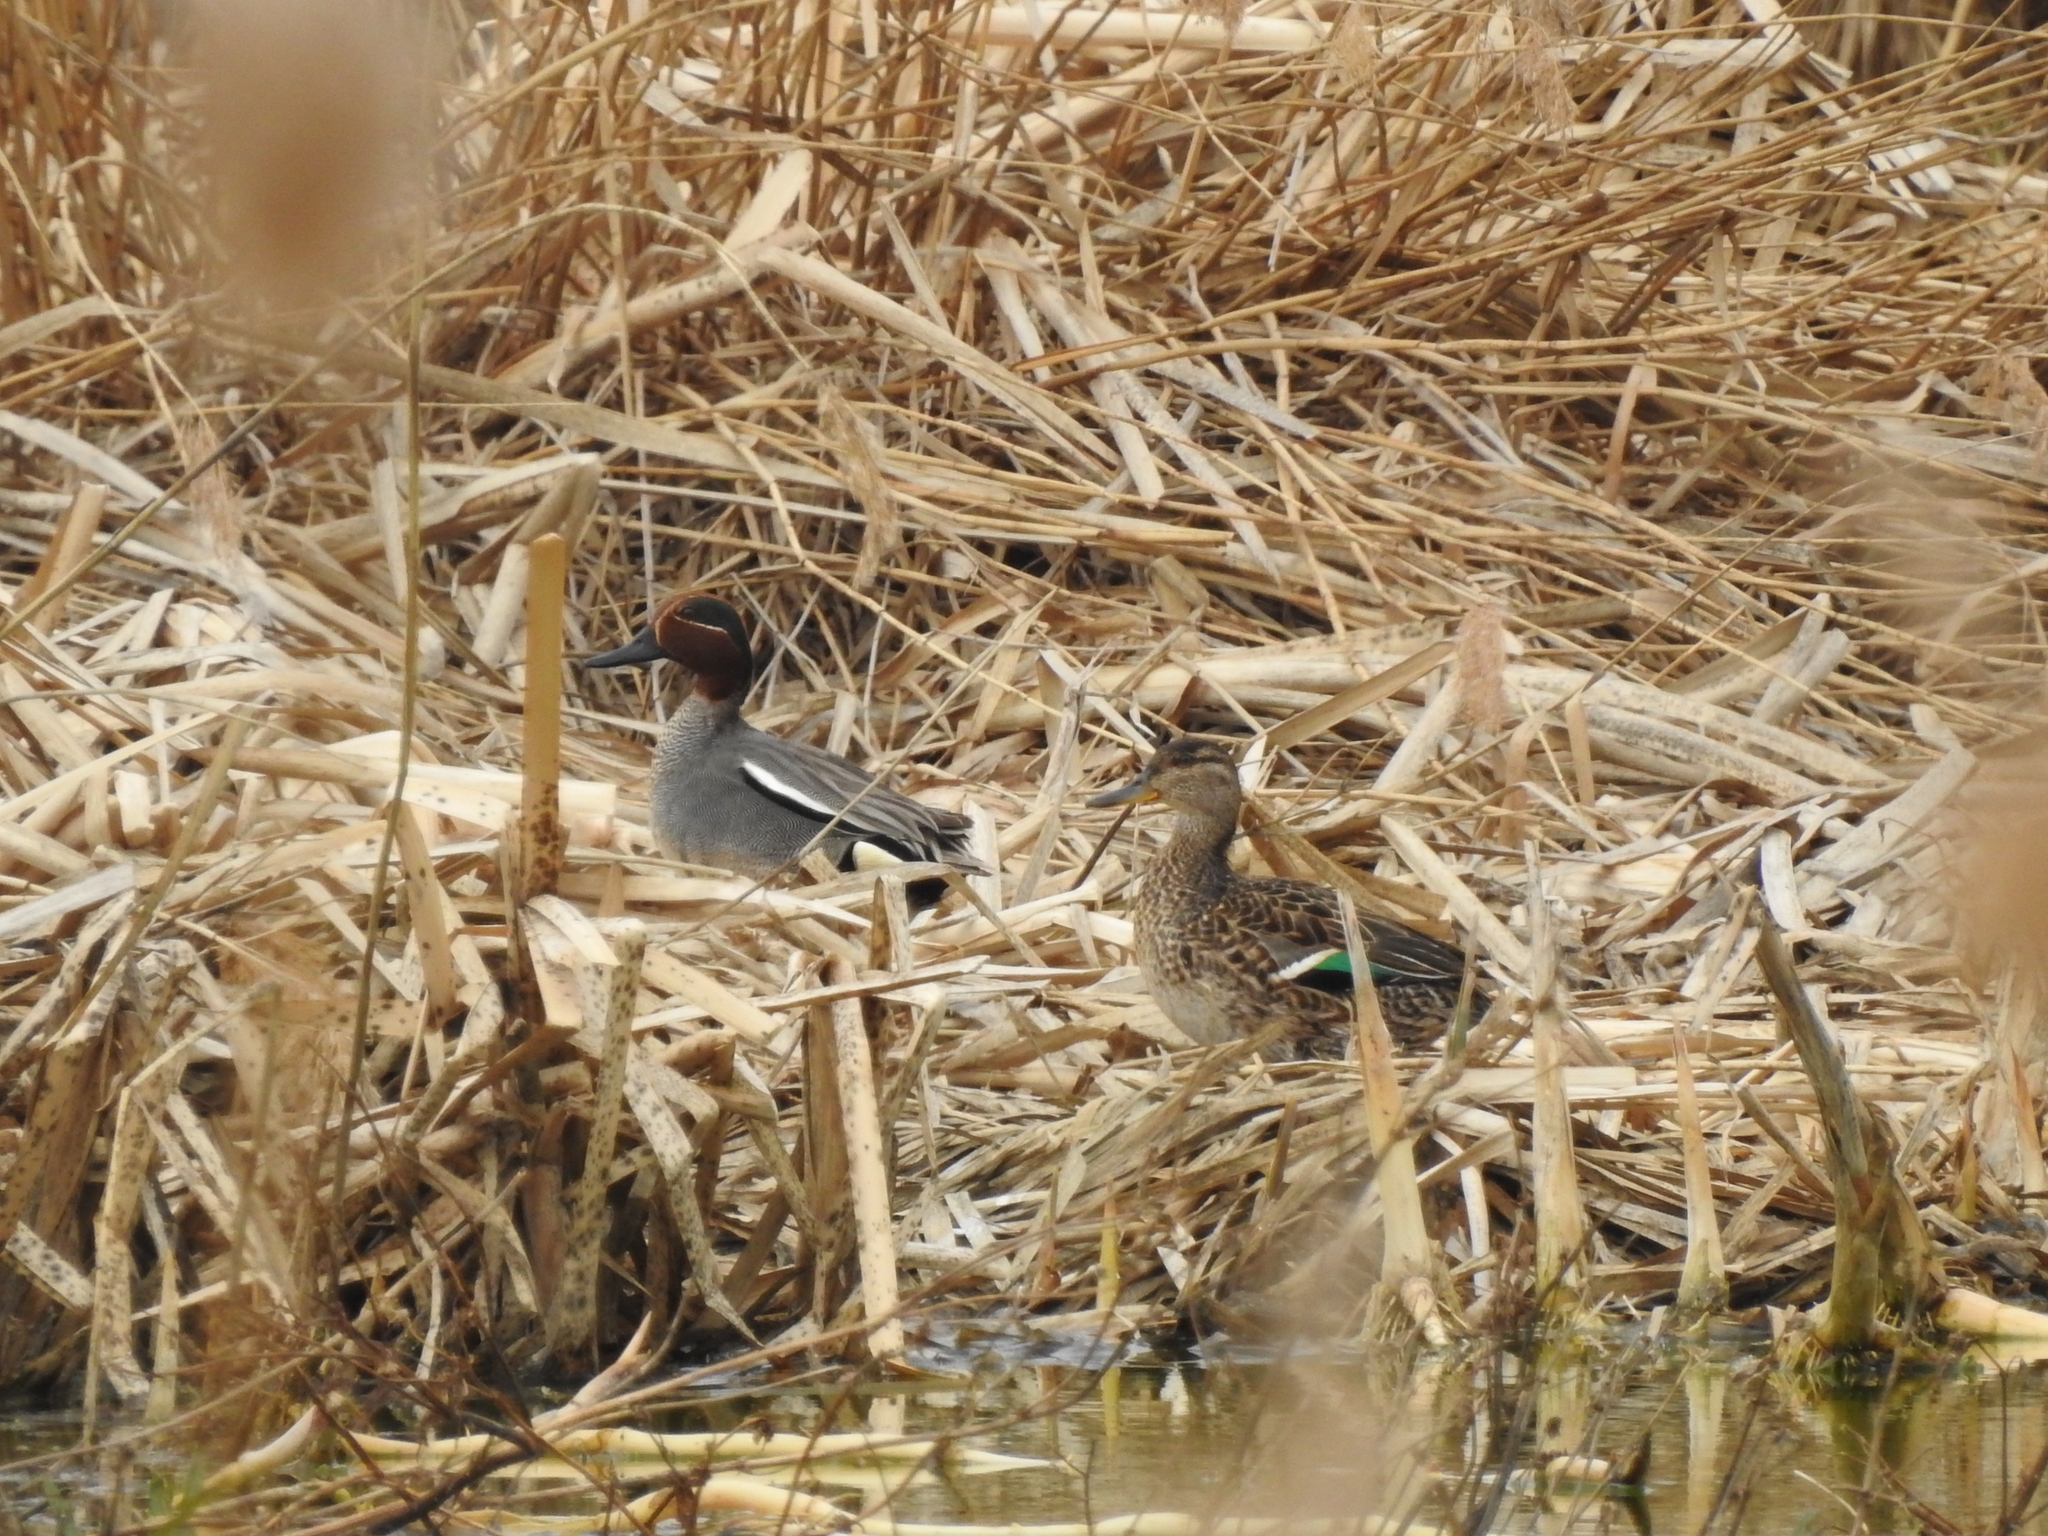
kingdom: Animalia
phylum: Chordata
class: Aves
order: Anseriformes
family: Anatidae
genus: Anas
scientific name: Anas crecca
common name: Eurasian teal
